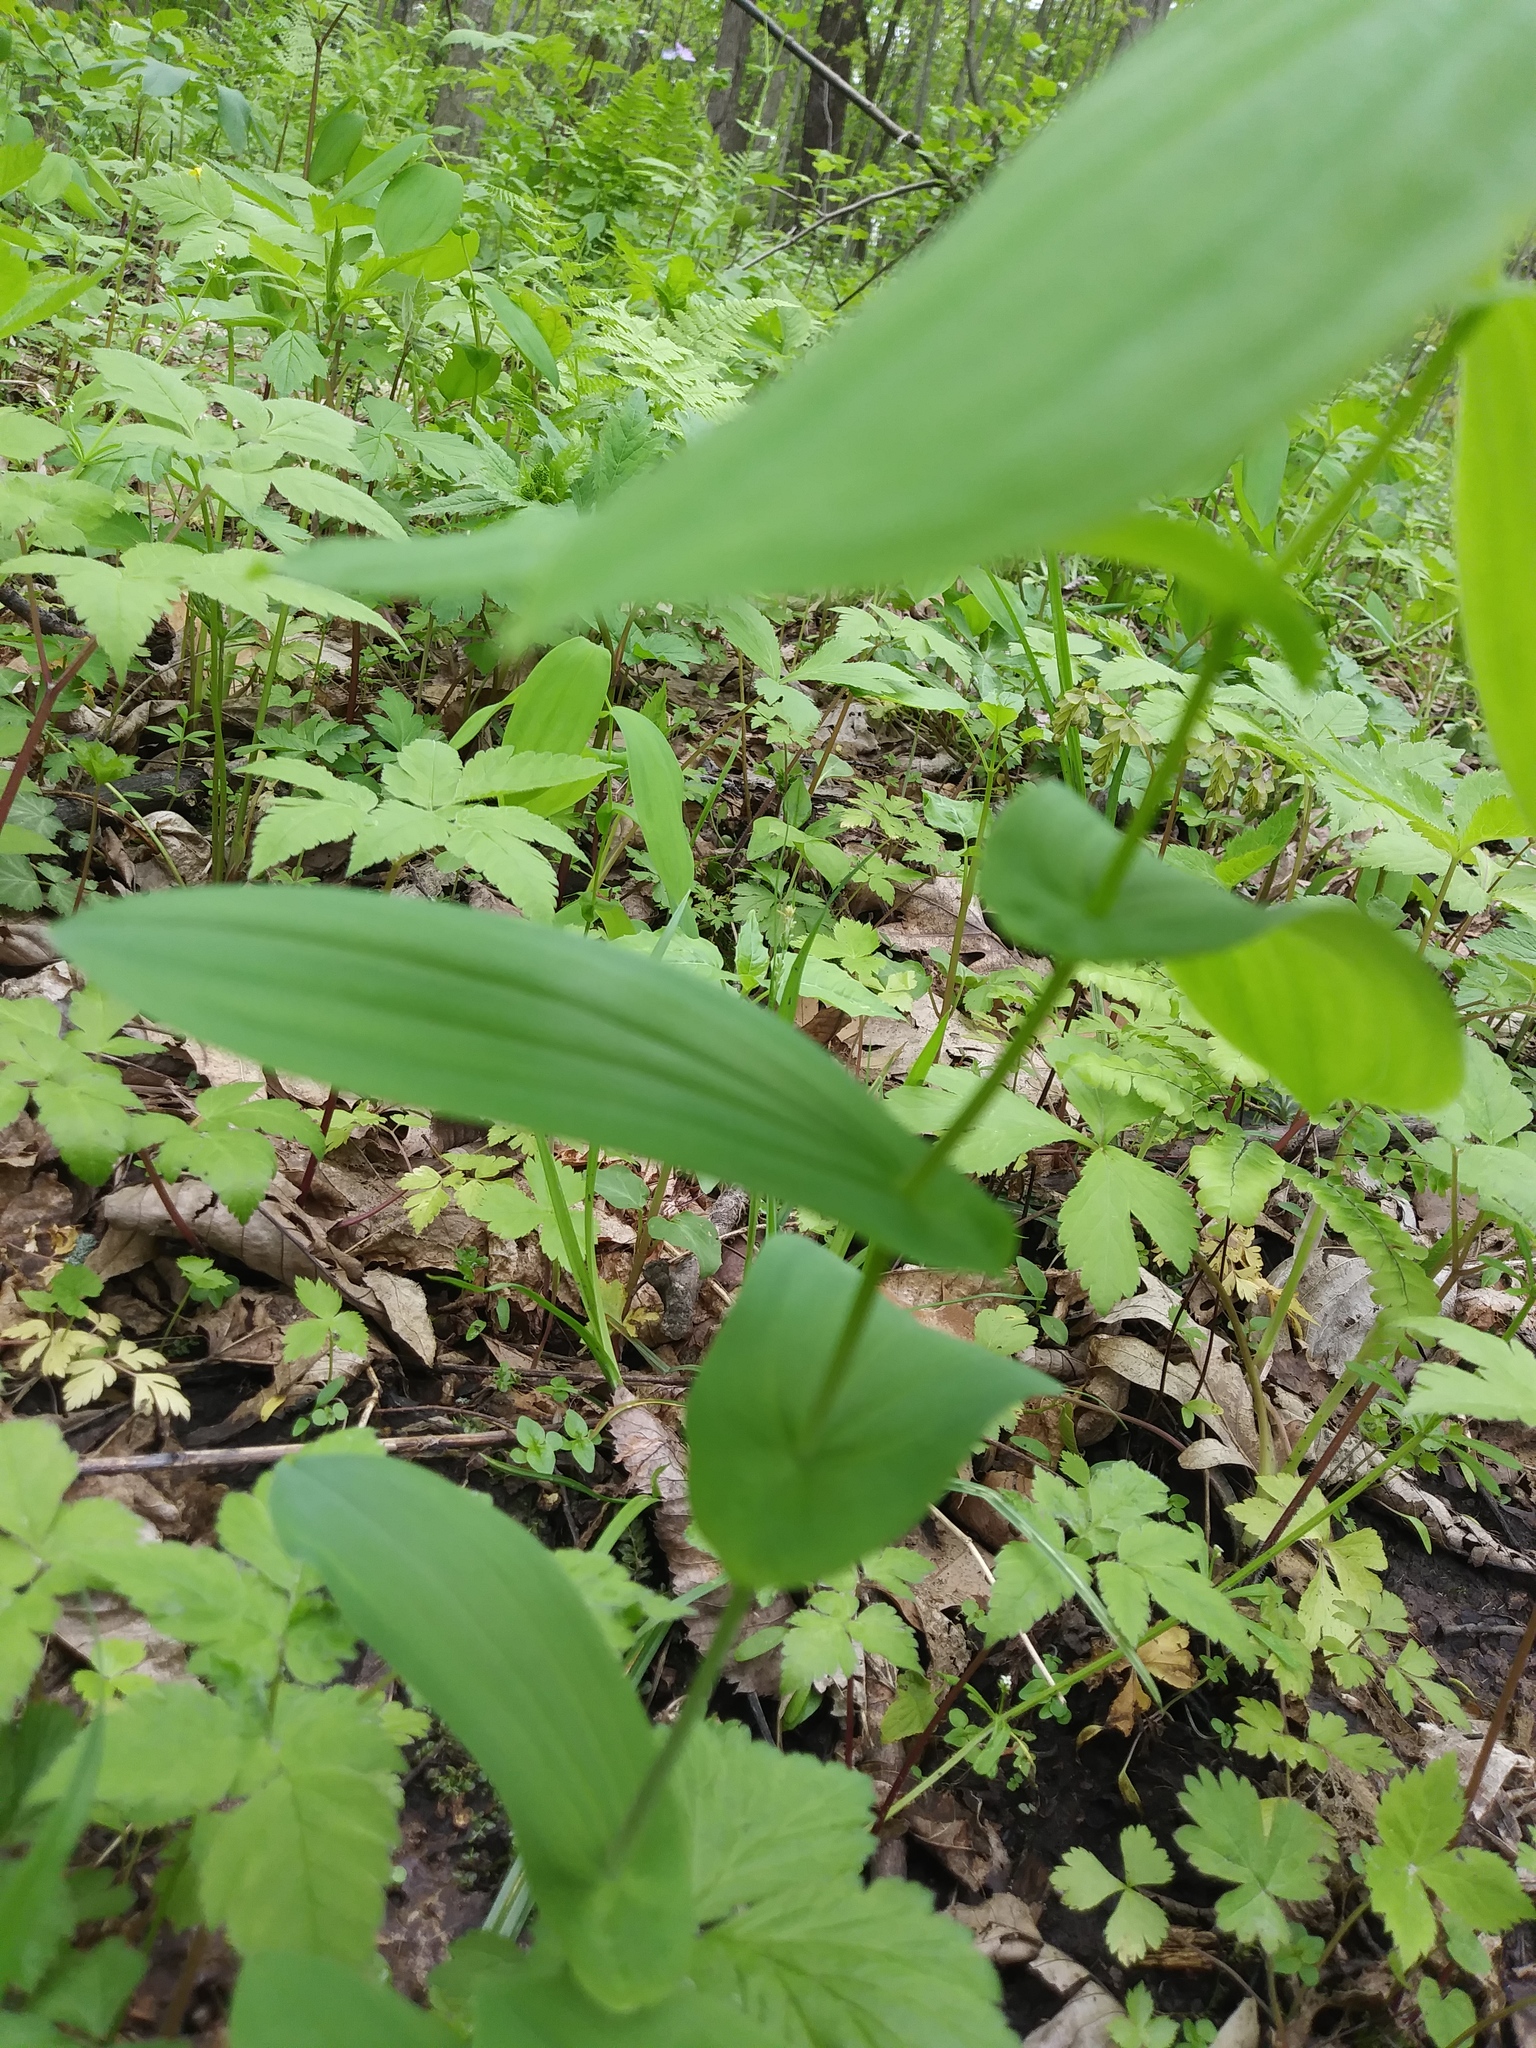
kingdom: Plantae
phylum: Tracheophyta
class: Liliopsida
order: Liliales
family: Colchicaceae
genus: Uvularia
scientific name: Uvularia grandiflora
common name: Bellwort
